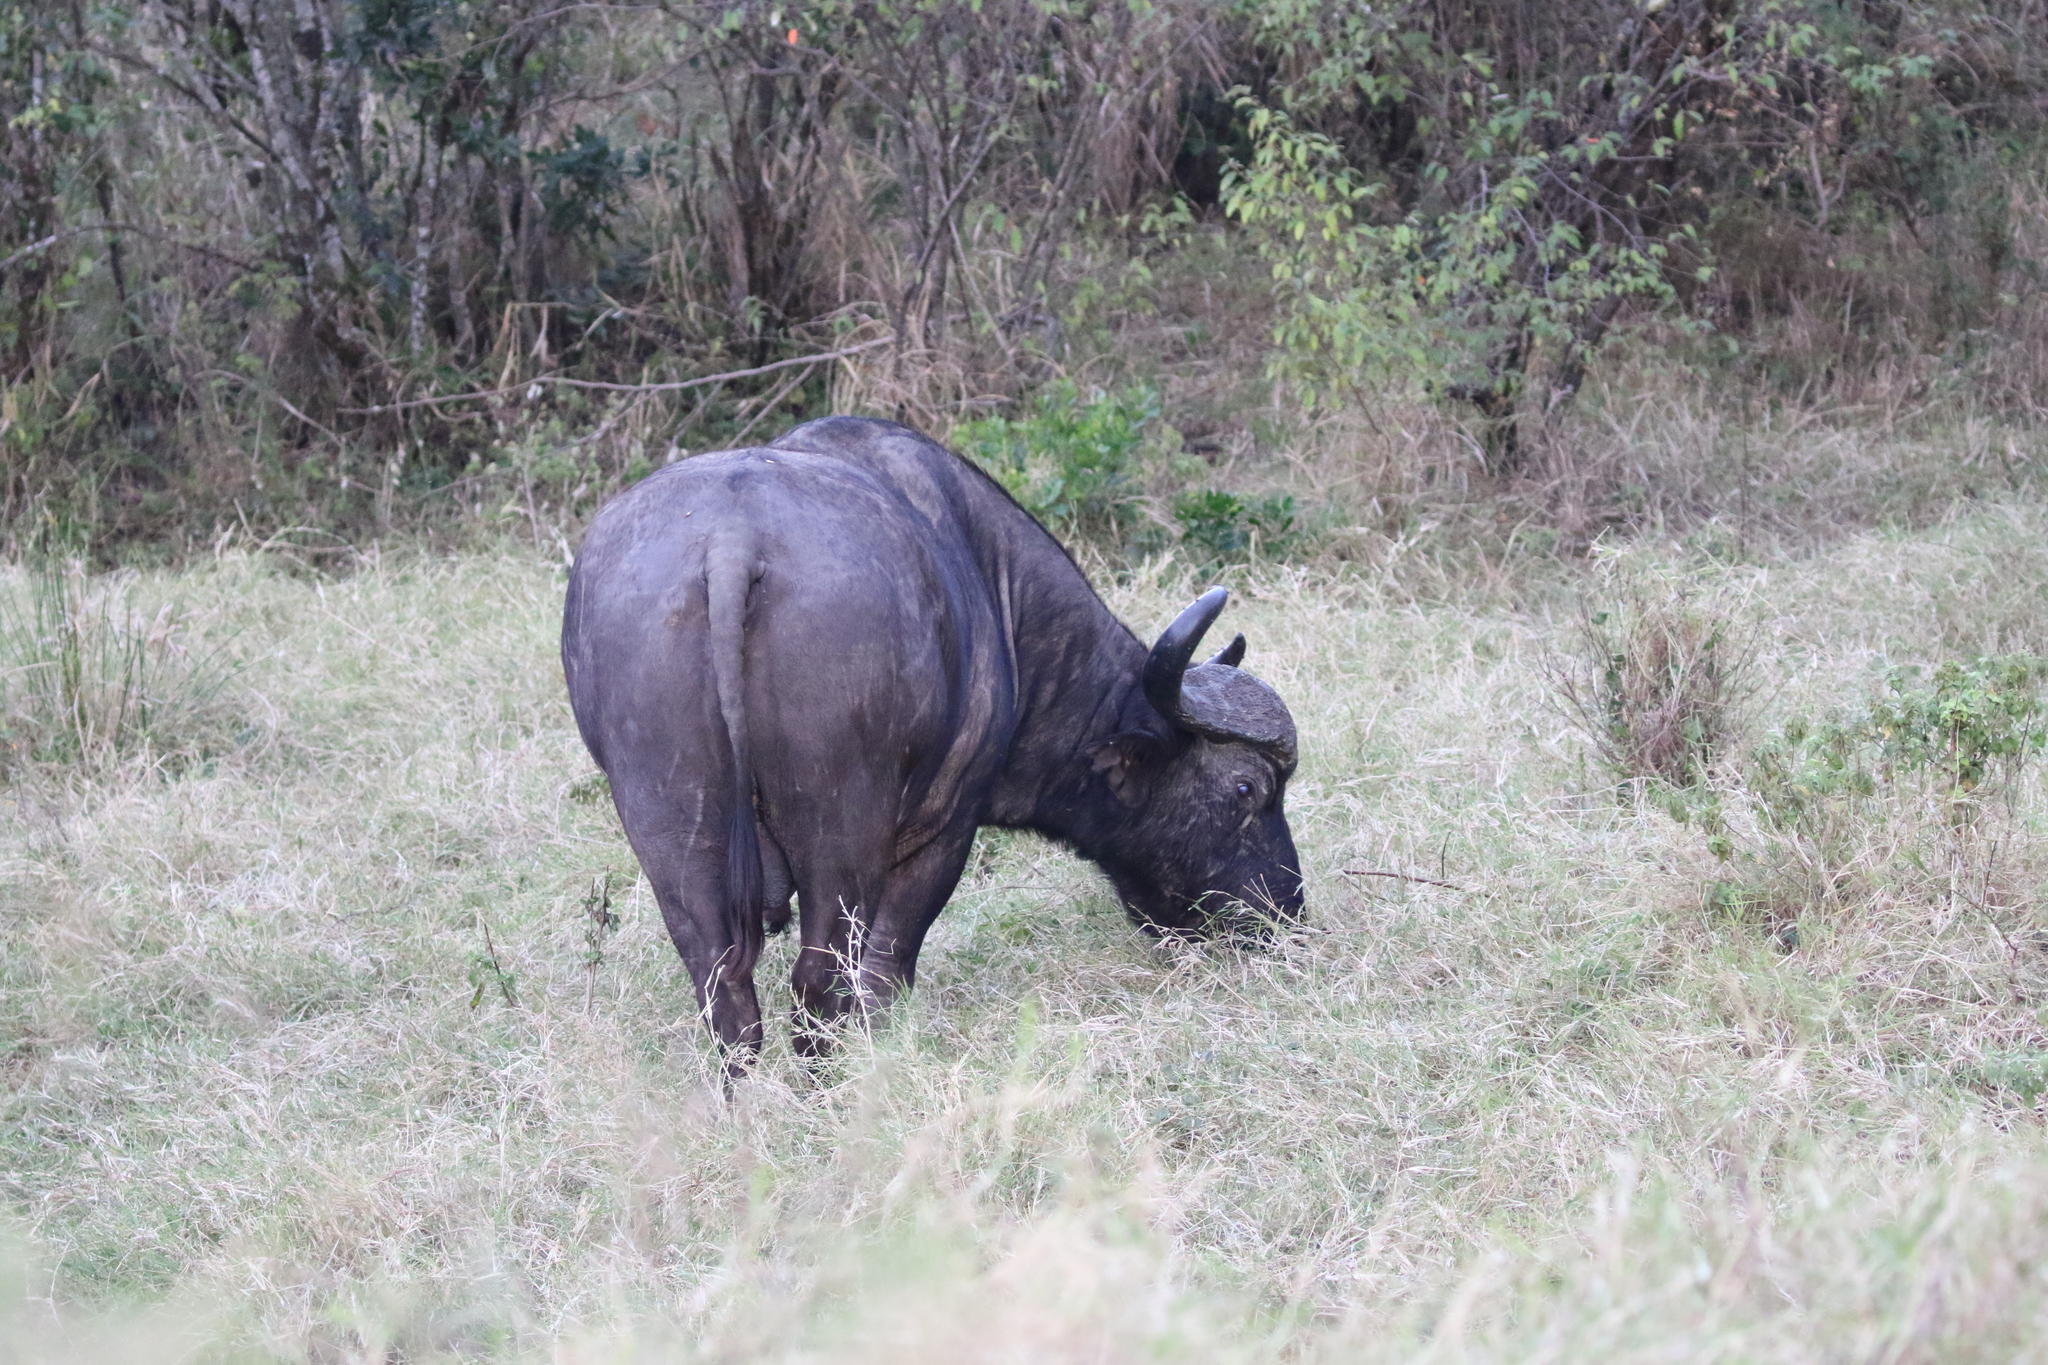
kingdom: Animalia
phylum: Chordata
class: Mammalia
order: Artiodactyla
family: Bovidae
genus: Syncerus
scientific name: Syncerus caffer
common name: African buffalo
